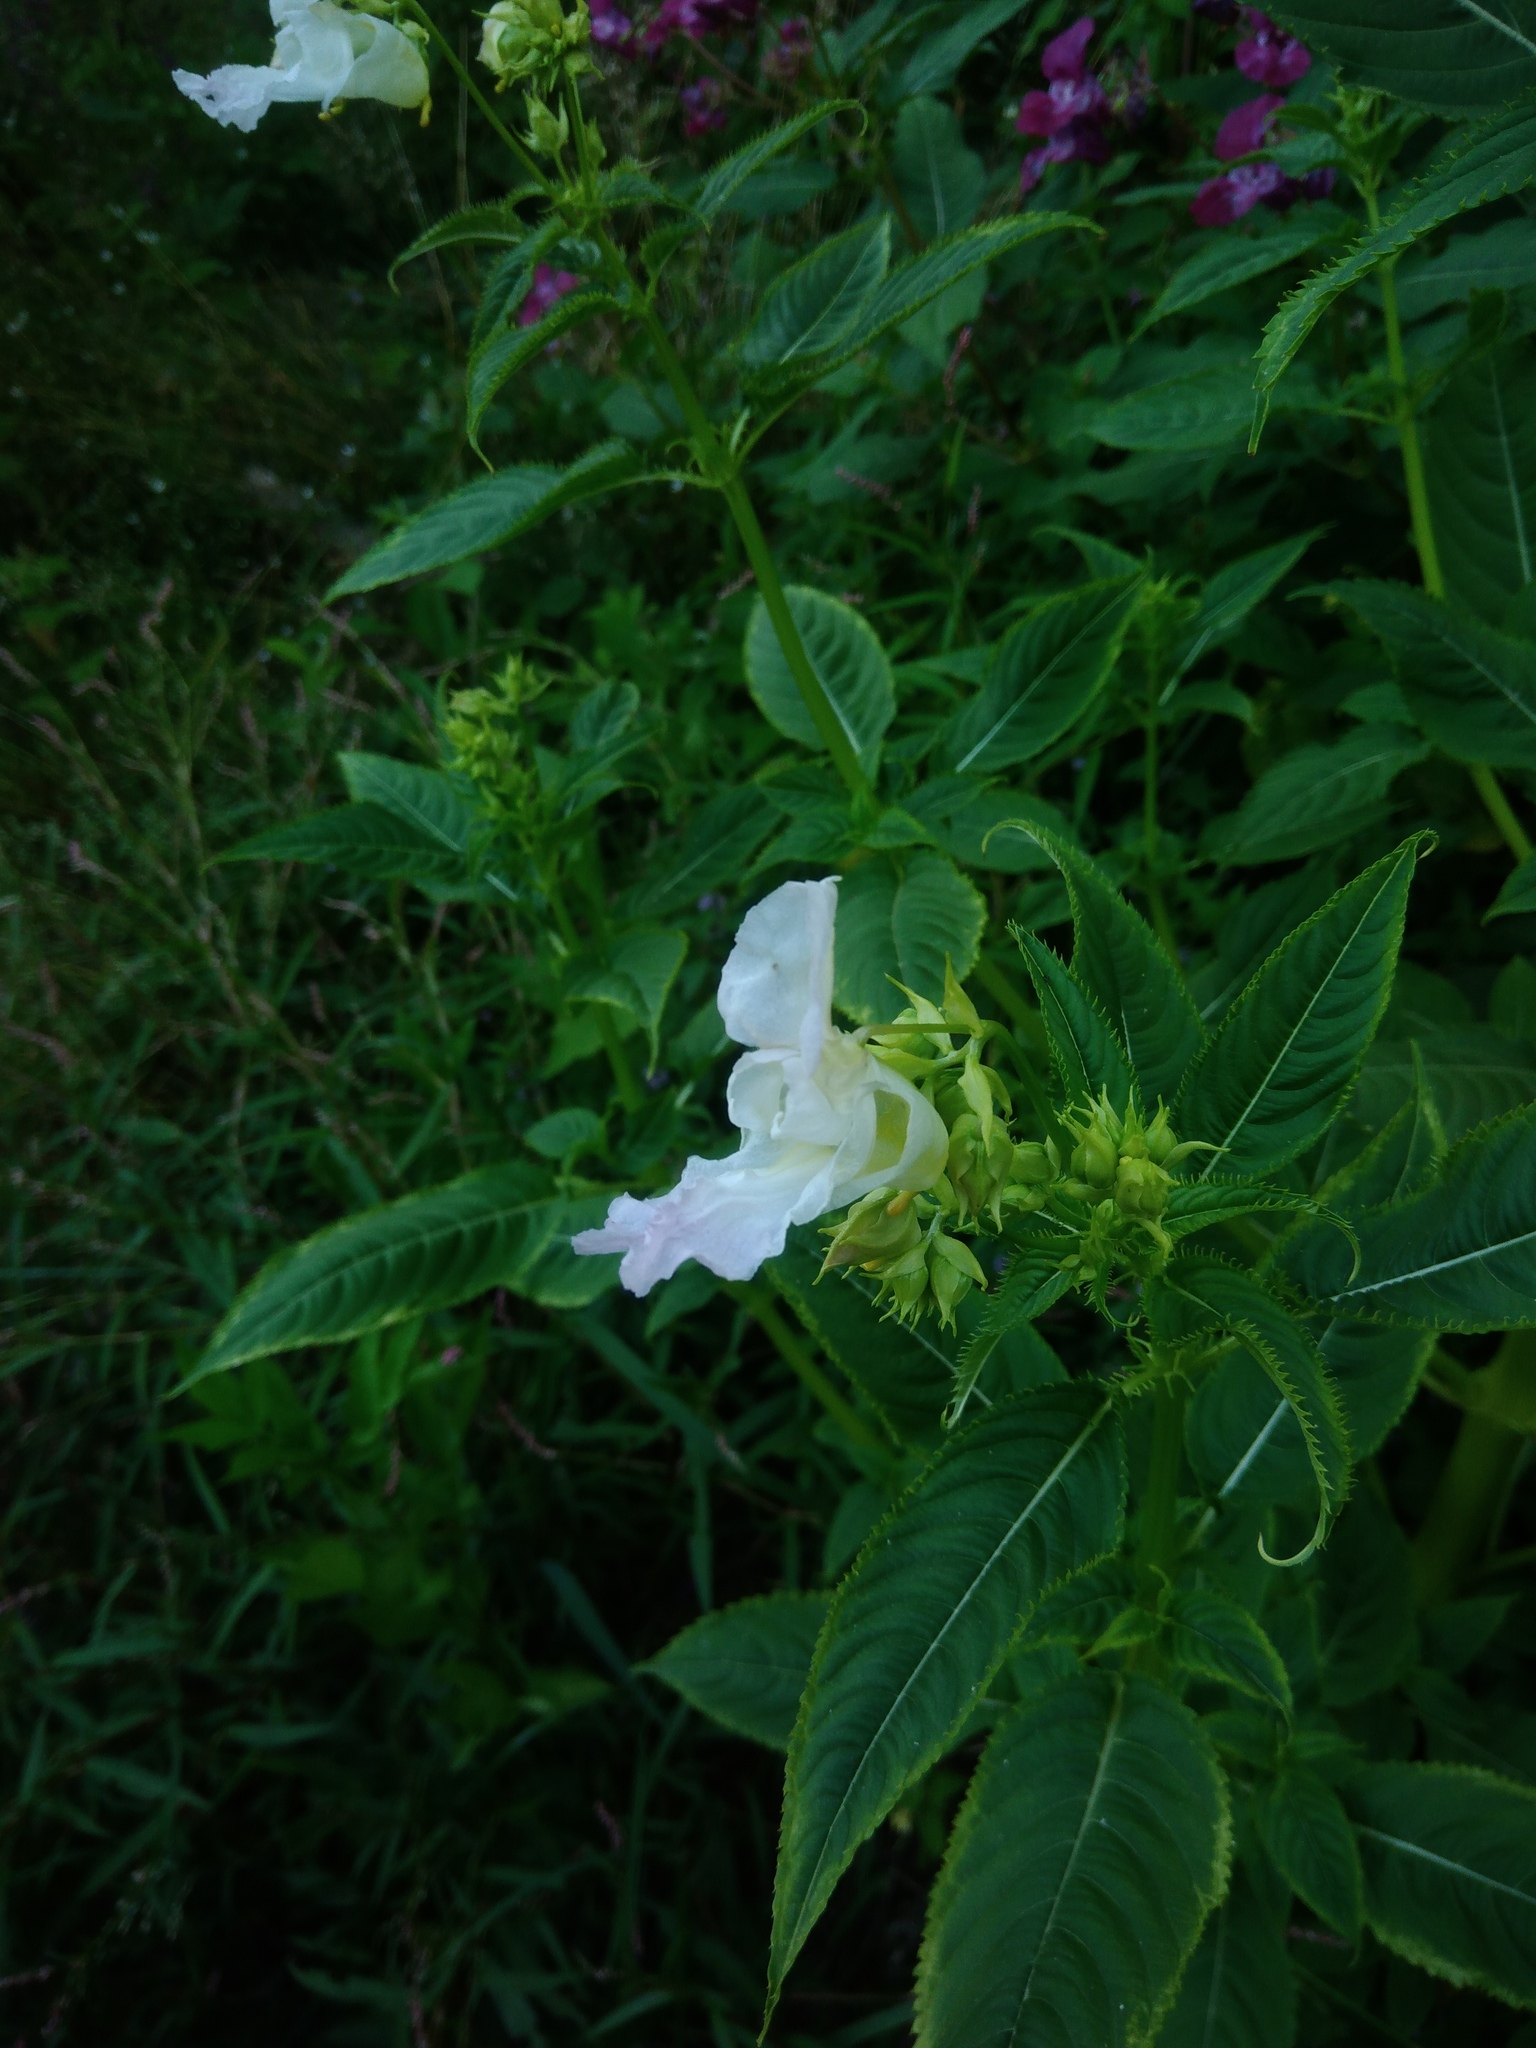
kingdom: Plantae
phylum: Tracheophyta
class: Magnoliopsida
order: Ericales
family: Balsaminaceae
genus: Impatiens
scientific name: Impatiens glandulifera
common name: Himalayan balsam
